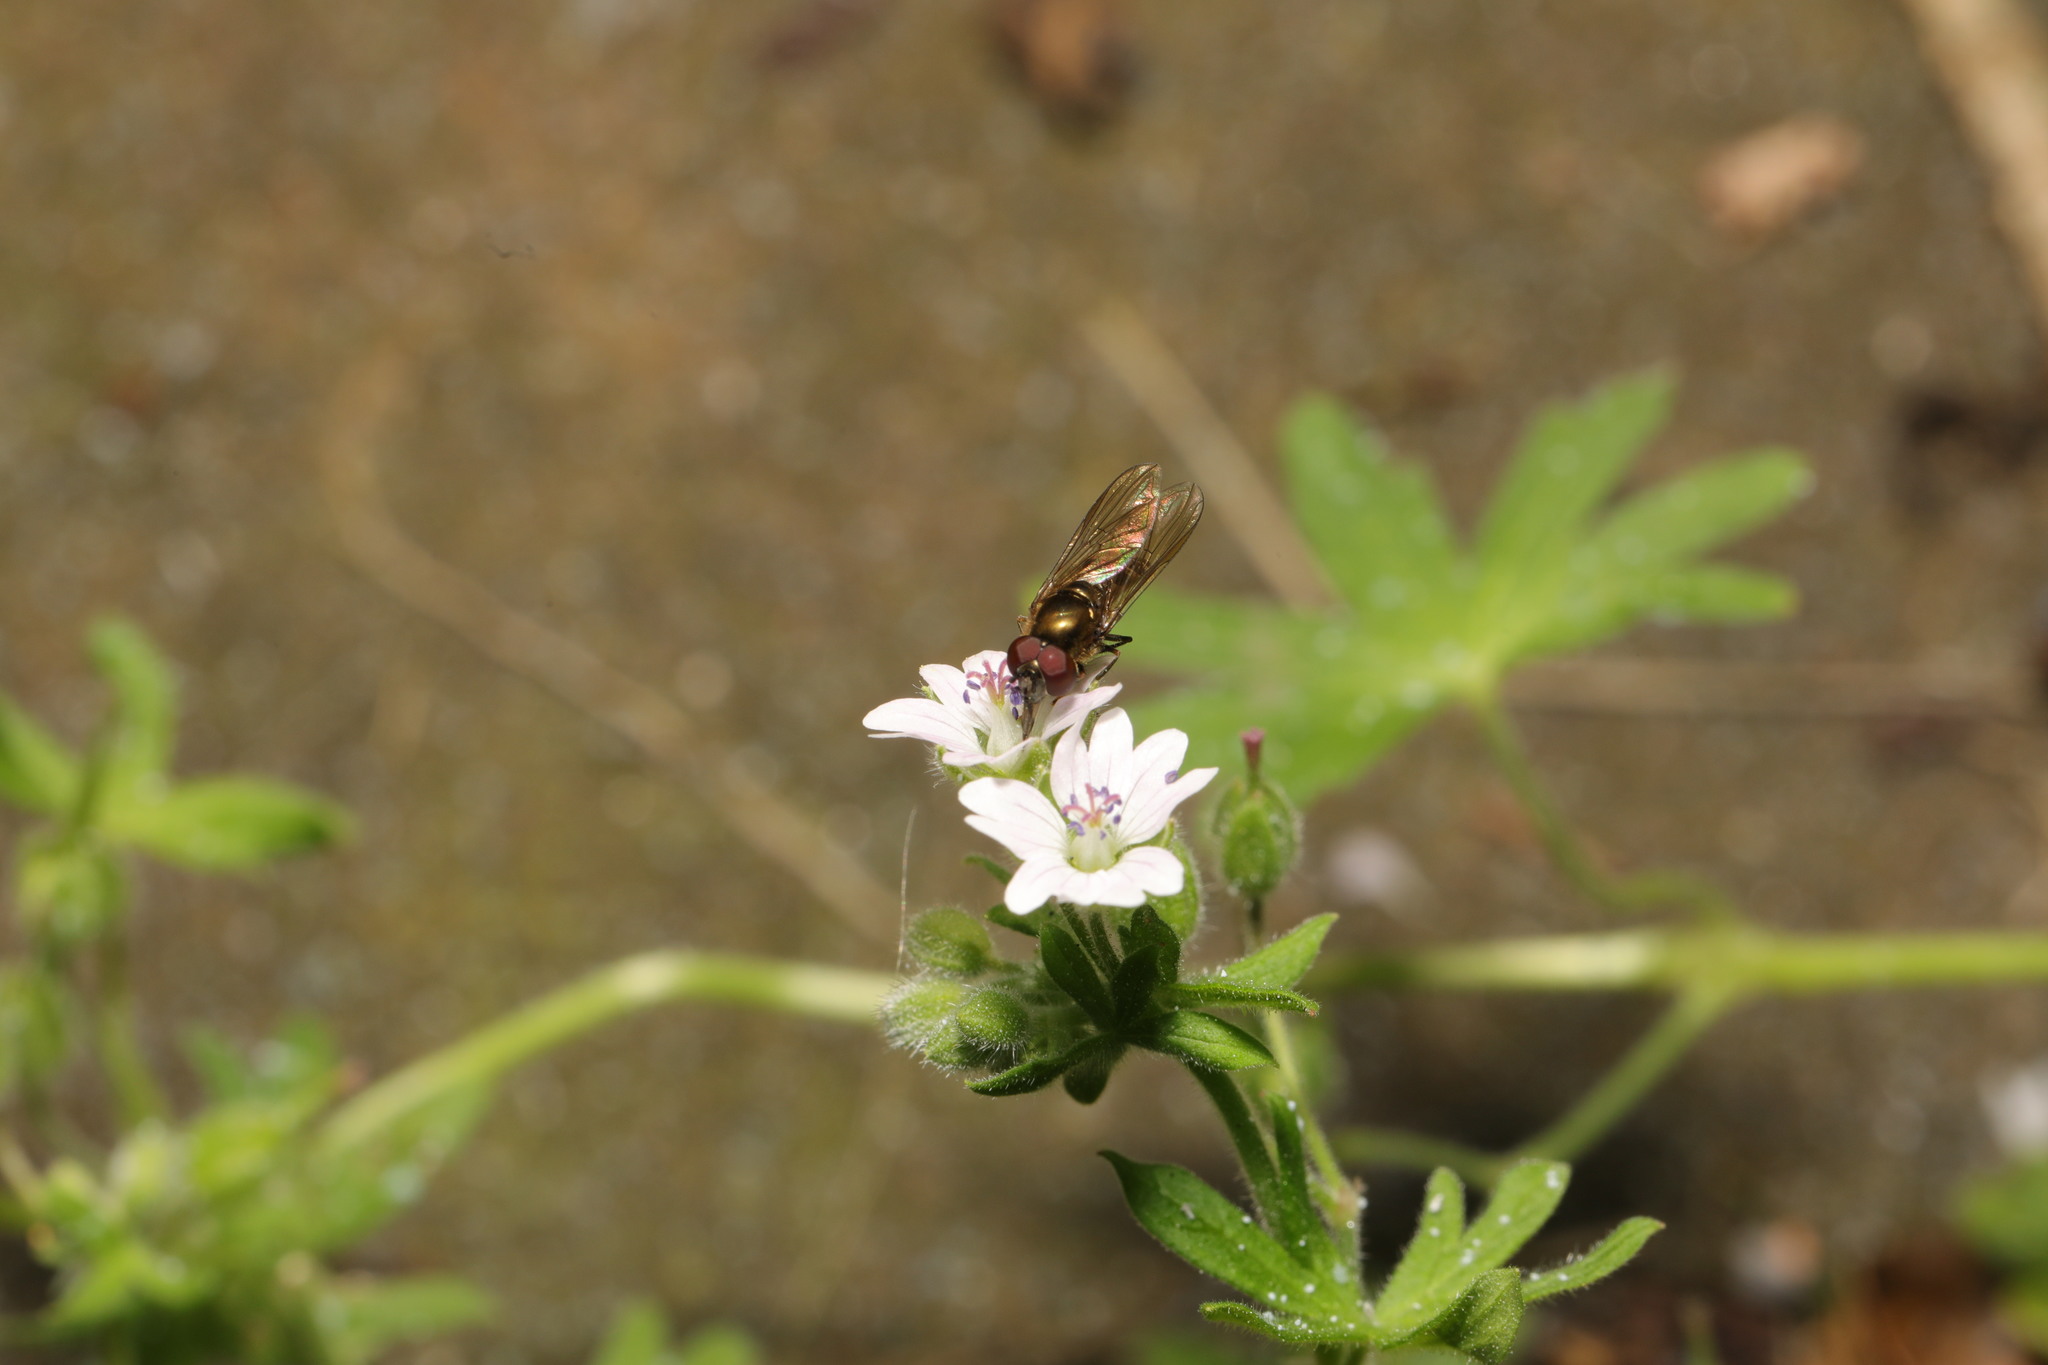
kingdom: Animalia
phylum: Arthropoda
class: Insecta
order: Diptera
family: Syrphidae
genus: Platycheirus
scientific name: Platycheirus
